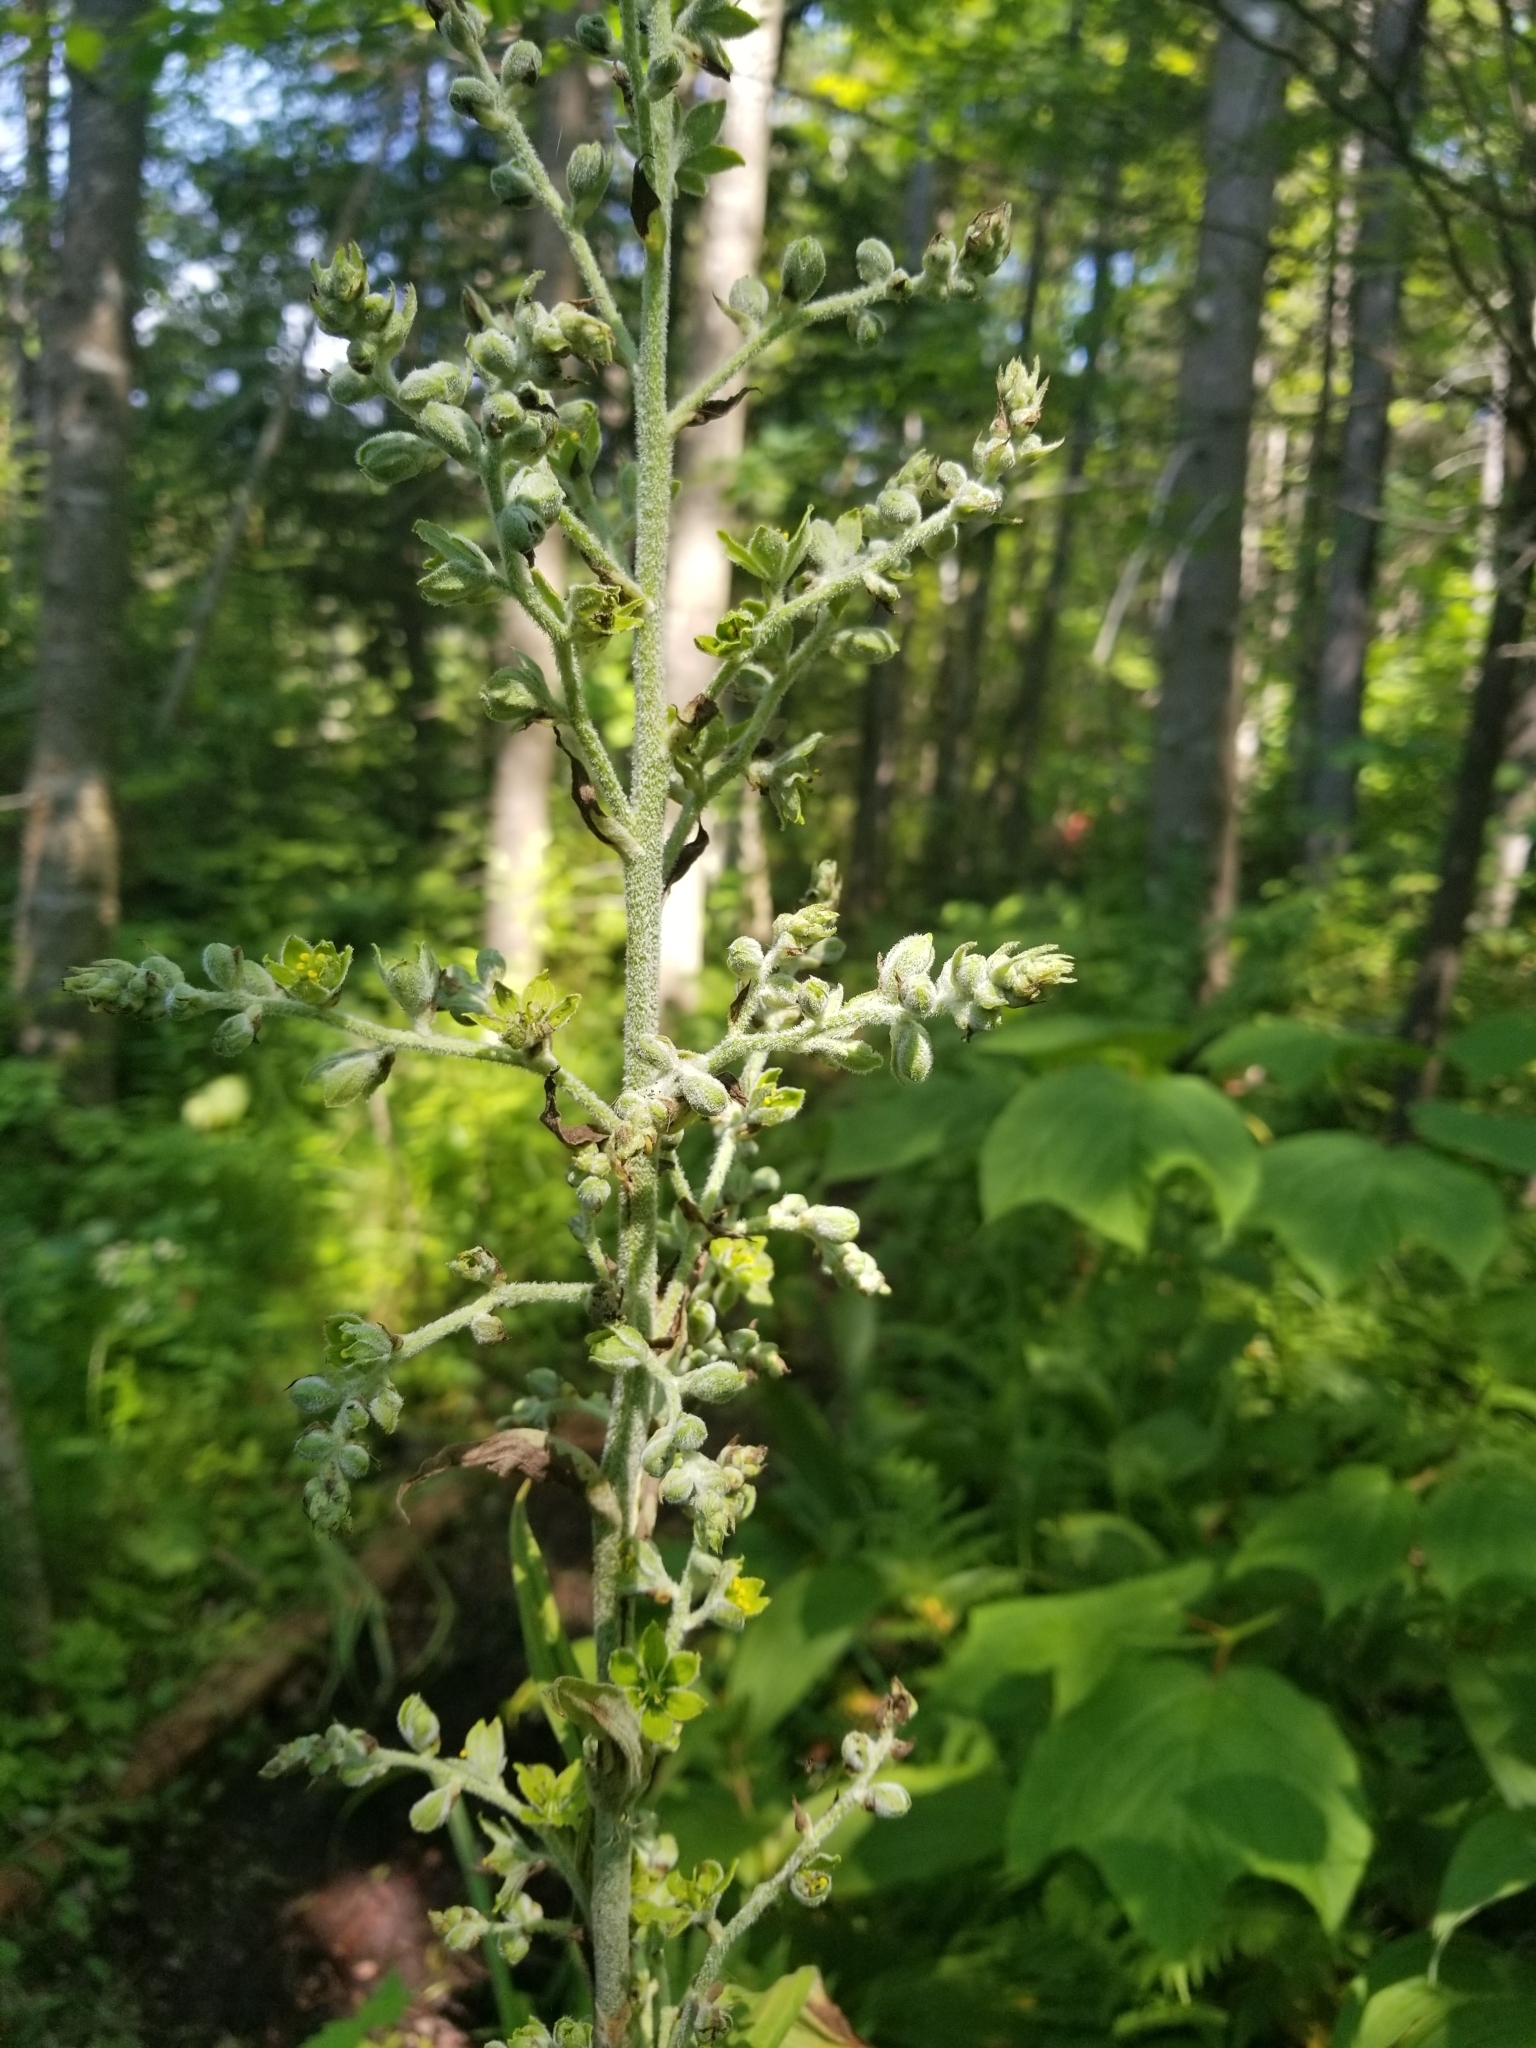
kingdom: Plantae
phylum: Tracheophyta
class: Liliopsida
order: Liliales
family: Melanthiaceae
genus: Veratrum
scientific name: Veratrum viride
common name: American false hellebore
